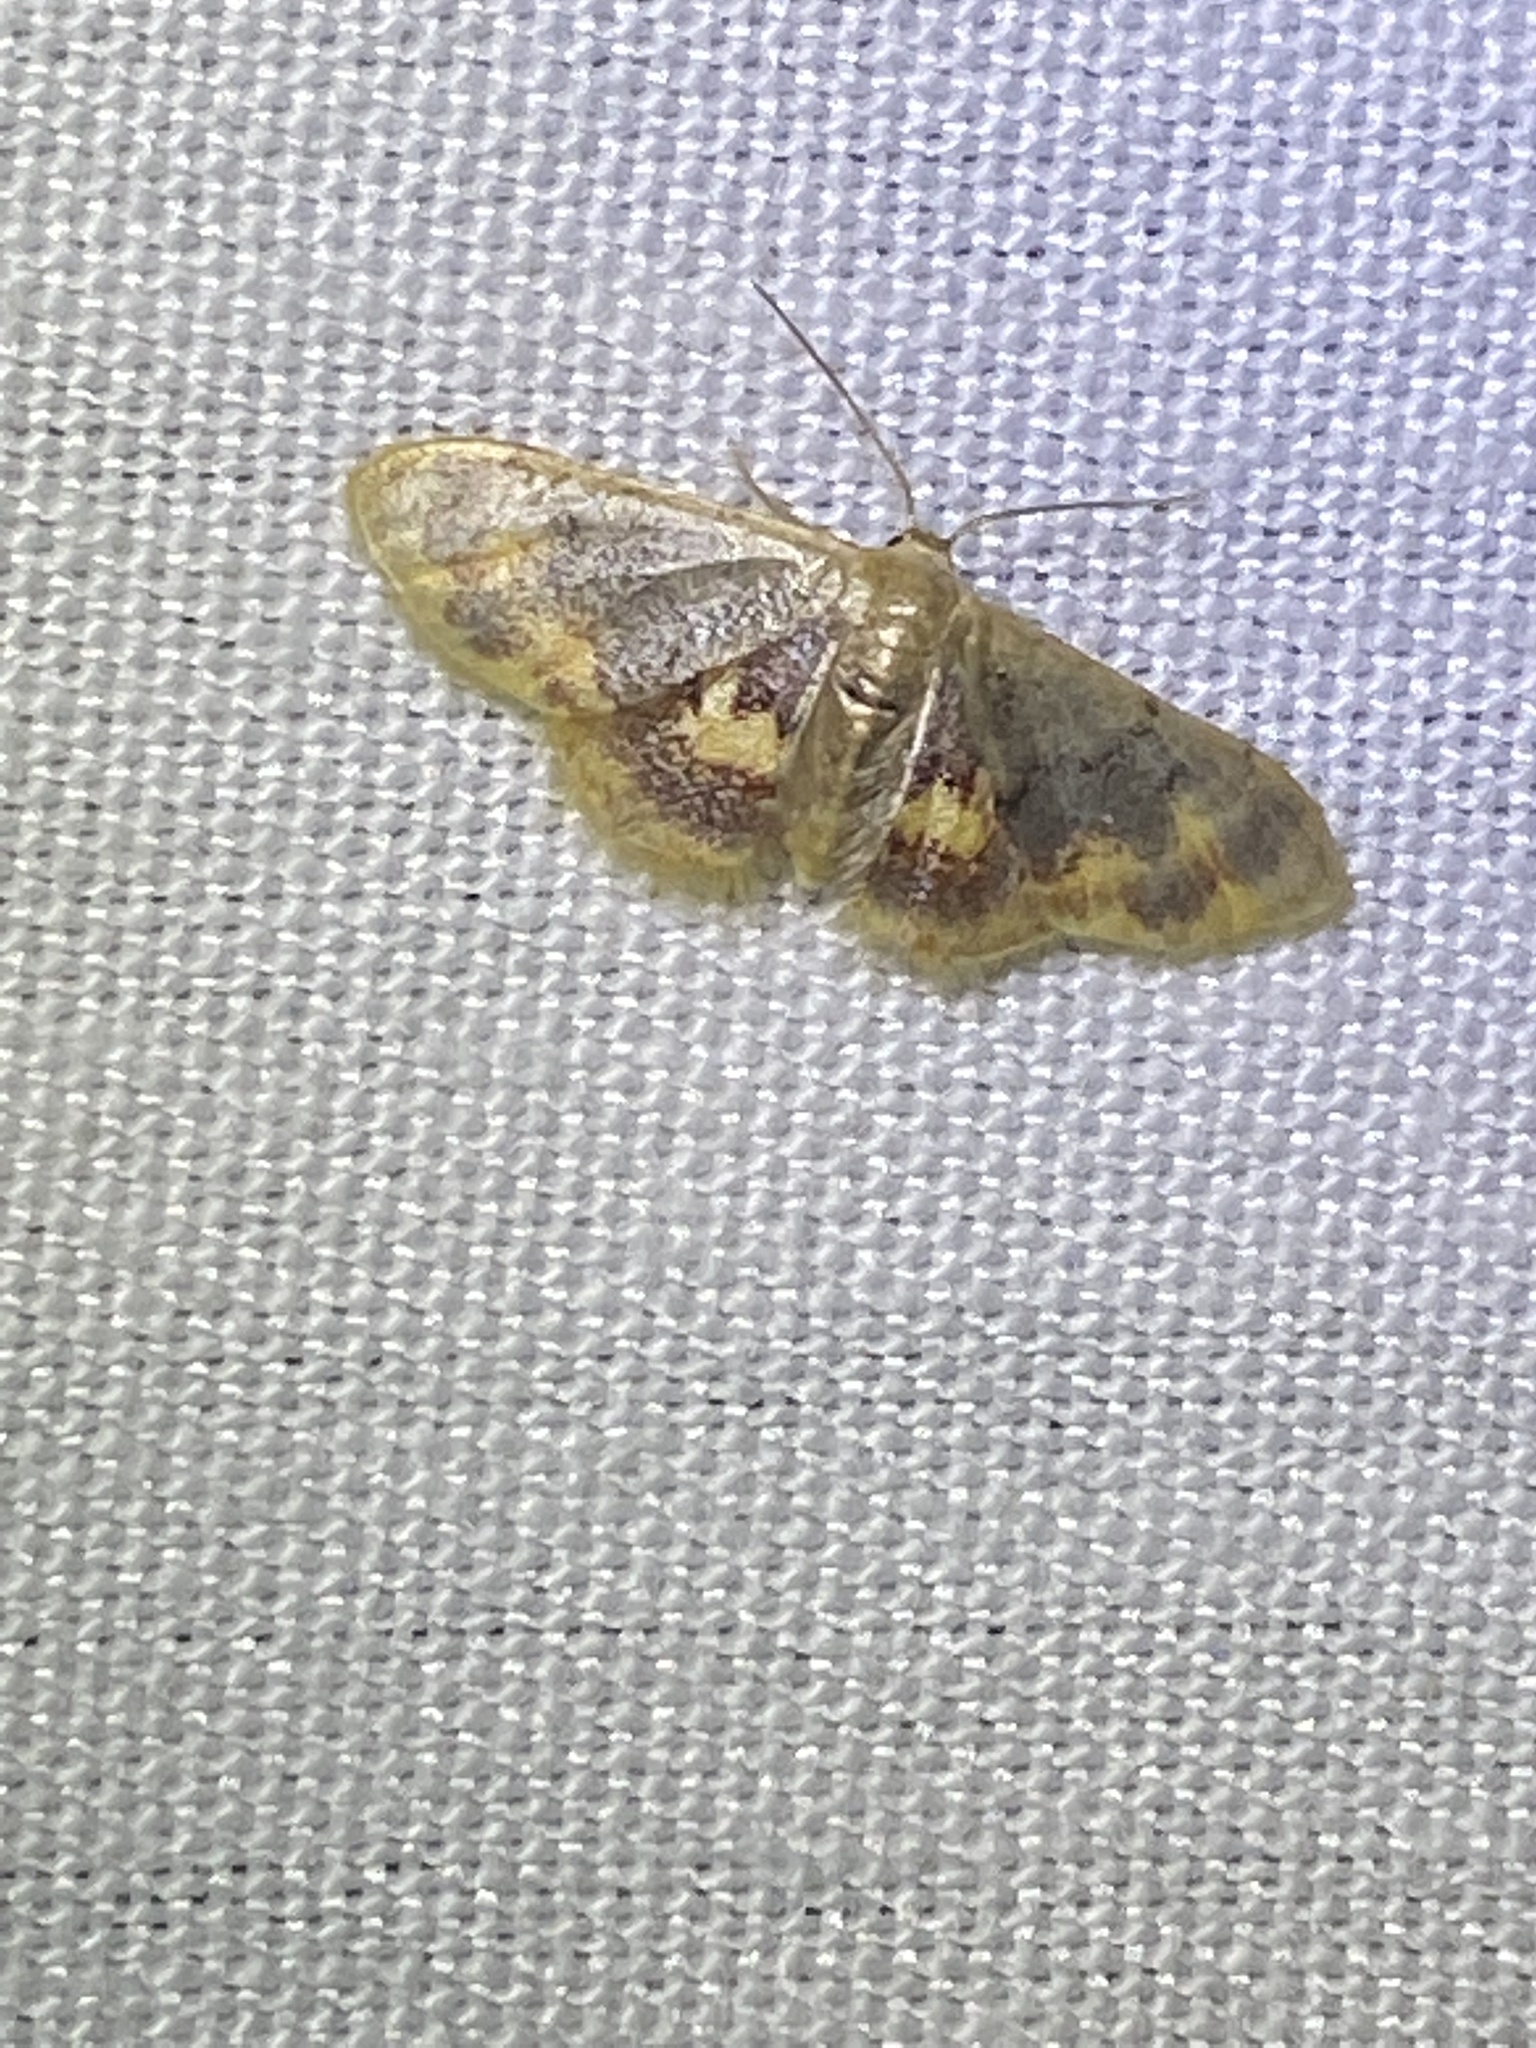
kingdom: Animalia
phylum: Arthropoda
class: Insecta
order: Lepidoptera
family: Geometridae
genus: Idaea
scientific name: Idaea scintillularia
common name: Diminutive wave
